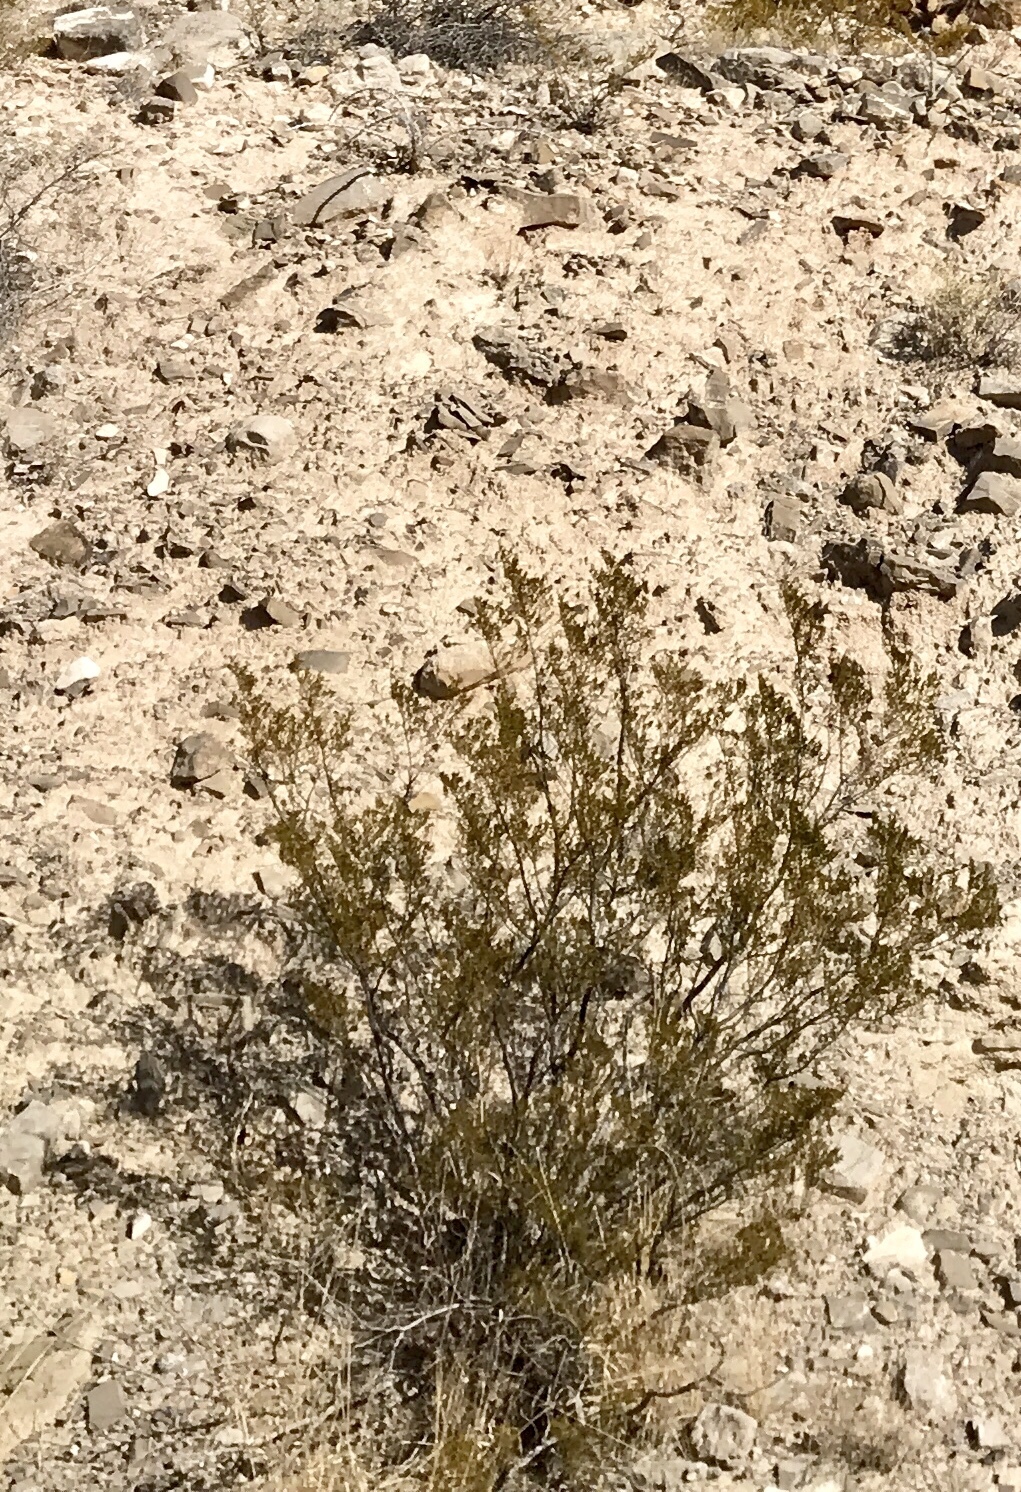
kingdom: Plantae
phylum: Tracheophyta
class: Magnoliopsida
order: Zygophyllales
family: Zygophyllaceae
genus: Larrea
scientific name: Larrea tridentata
